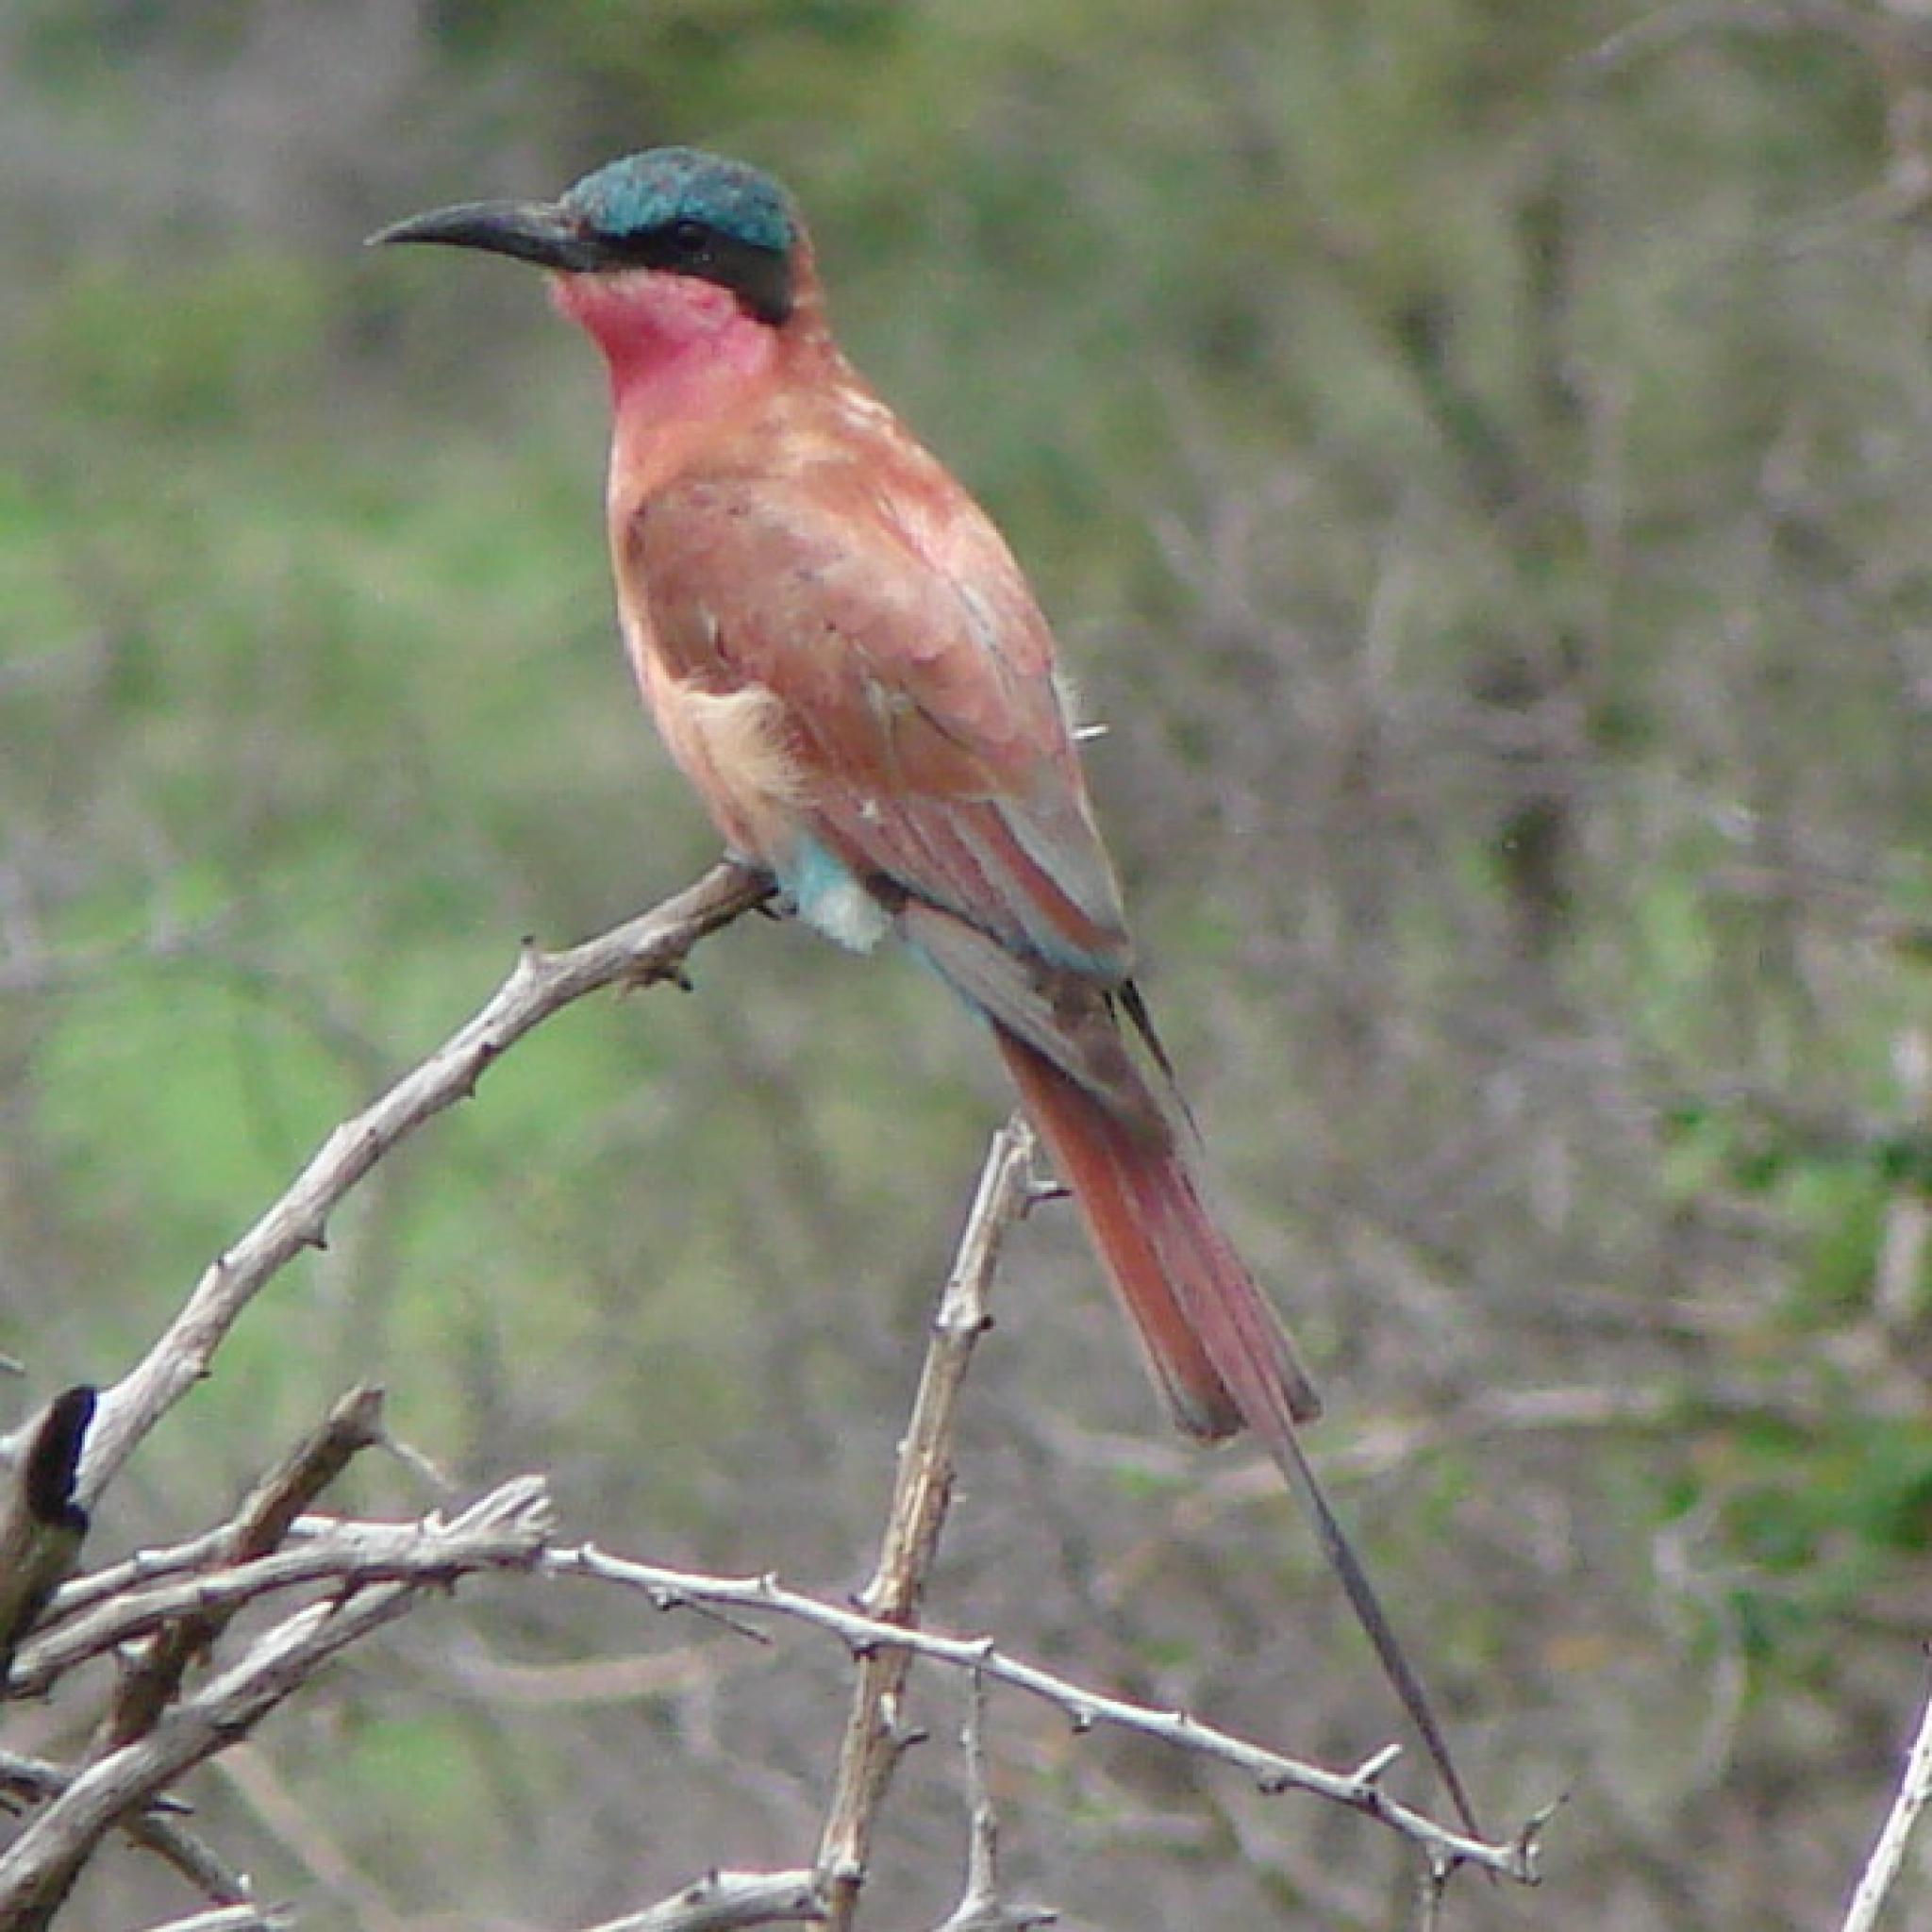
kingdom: Animalia
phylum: Chordata
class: Aves
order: Coraciiformes
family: Meropidae
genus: Merops
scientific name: Merops nubicoides
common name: Southern carmine bee-eater
